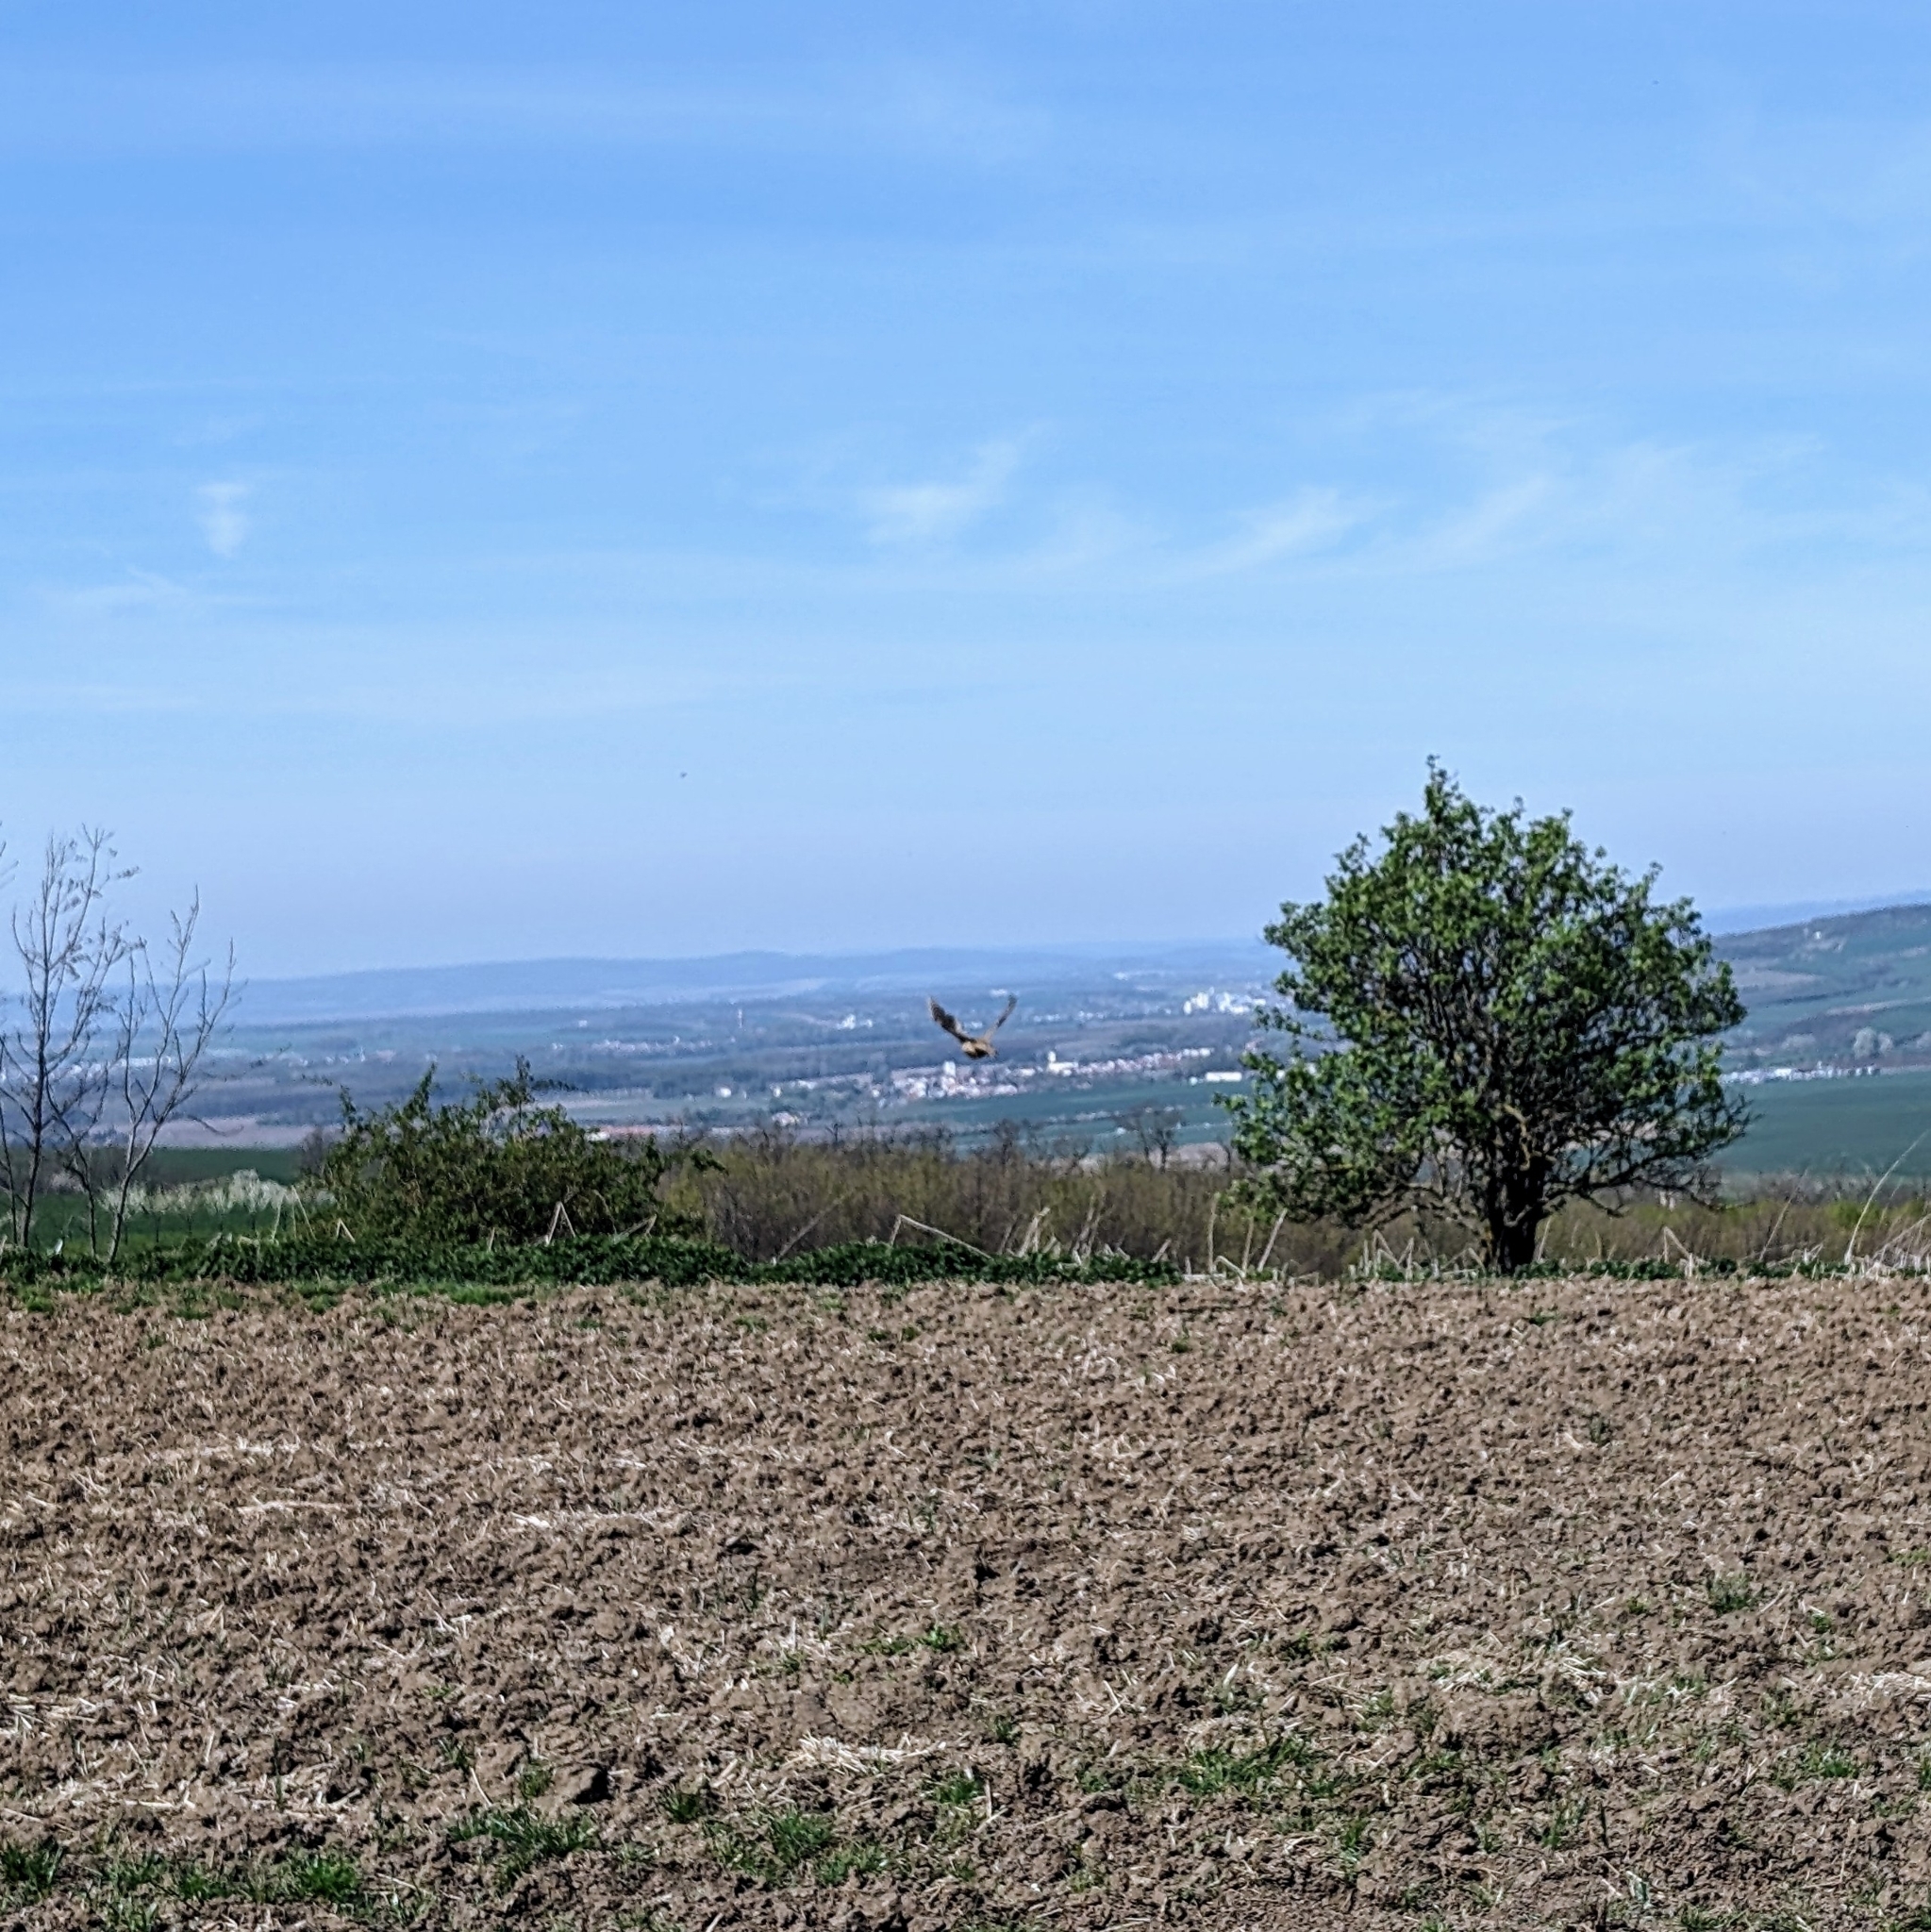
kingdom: Animalia
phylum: Chordata
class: Aves
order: Galliformes
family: Phasianidae
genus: Phasianus
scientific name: Phasianus colchicus
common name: Common pheasant
